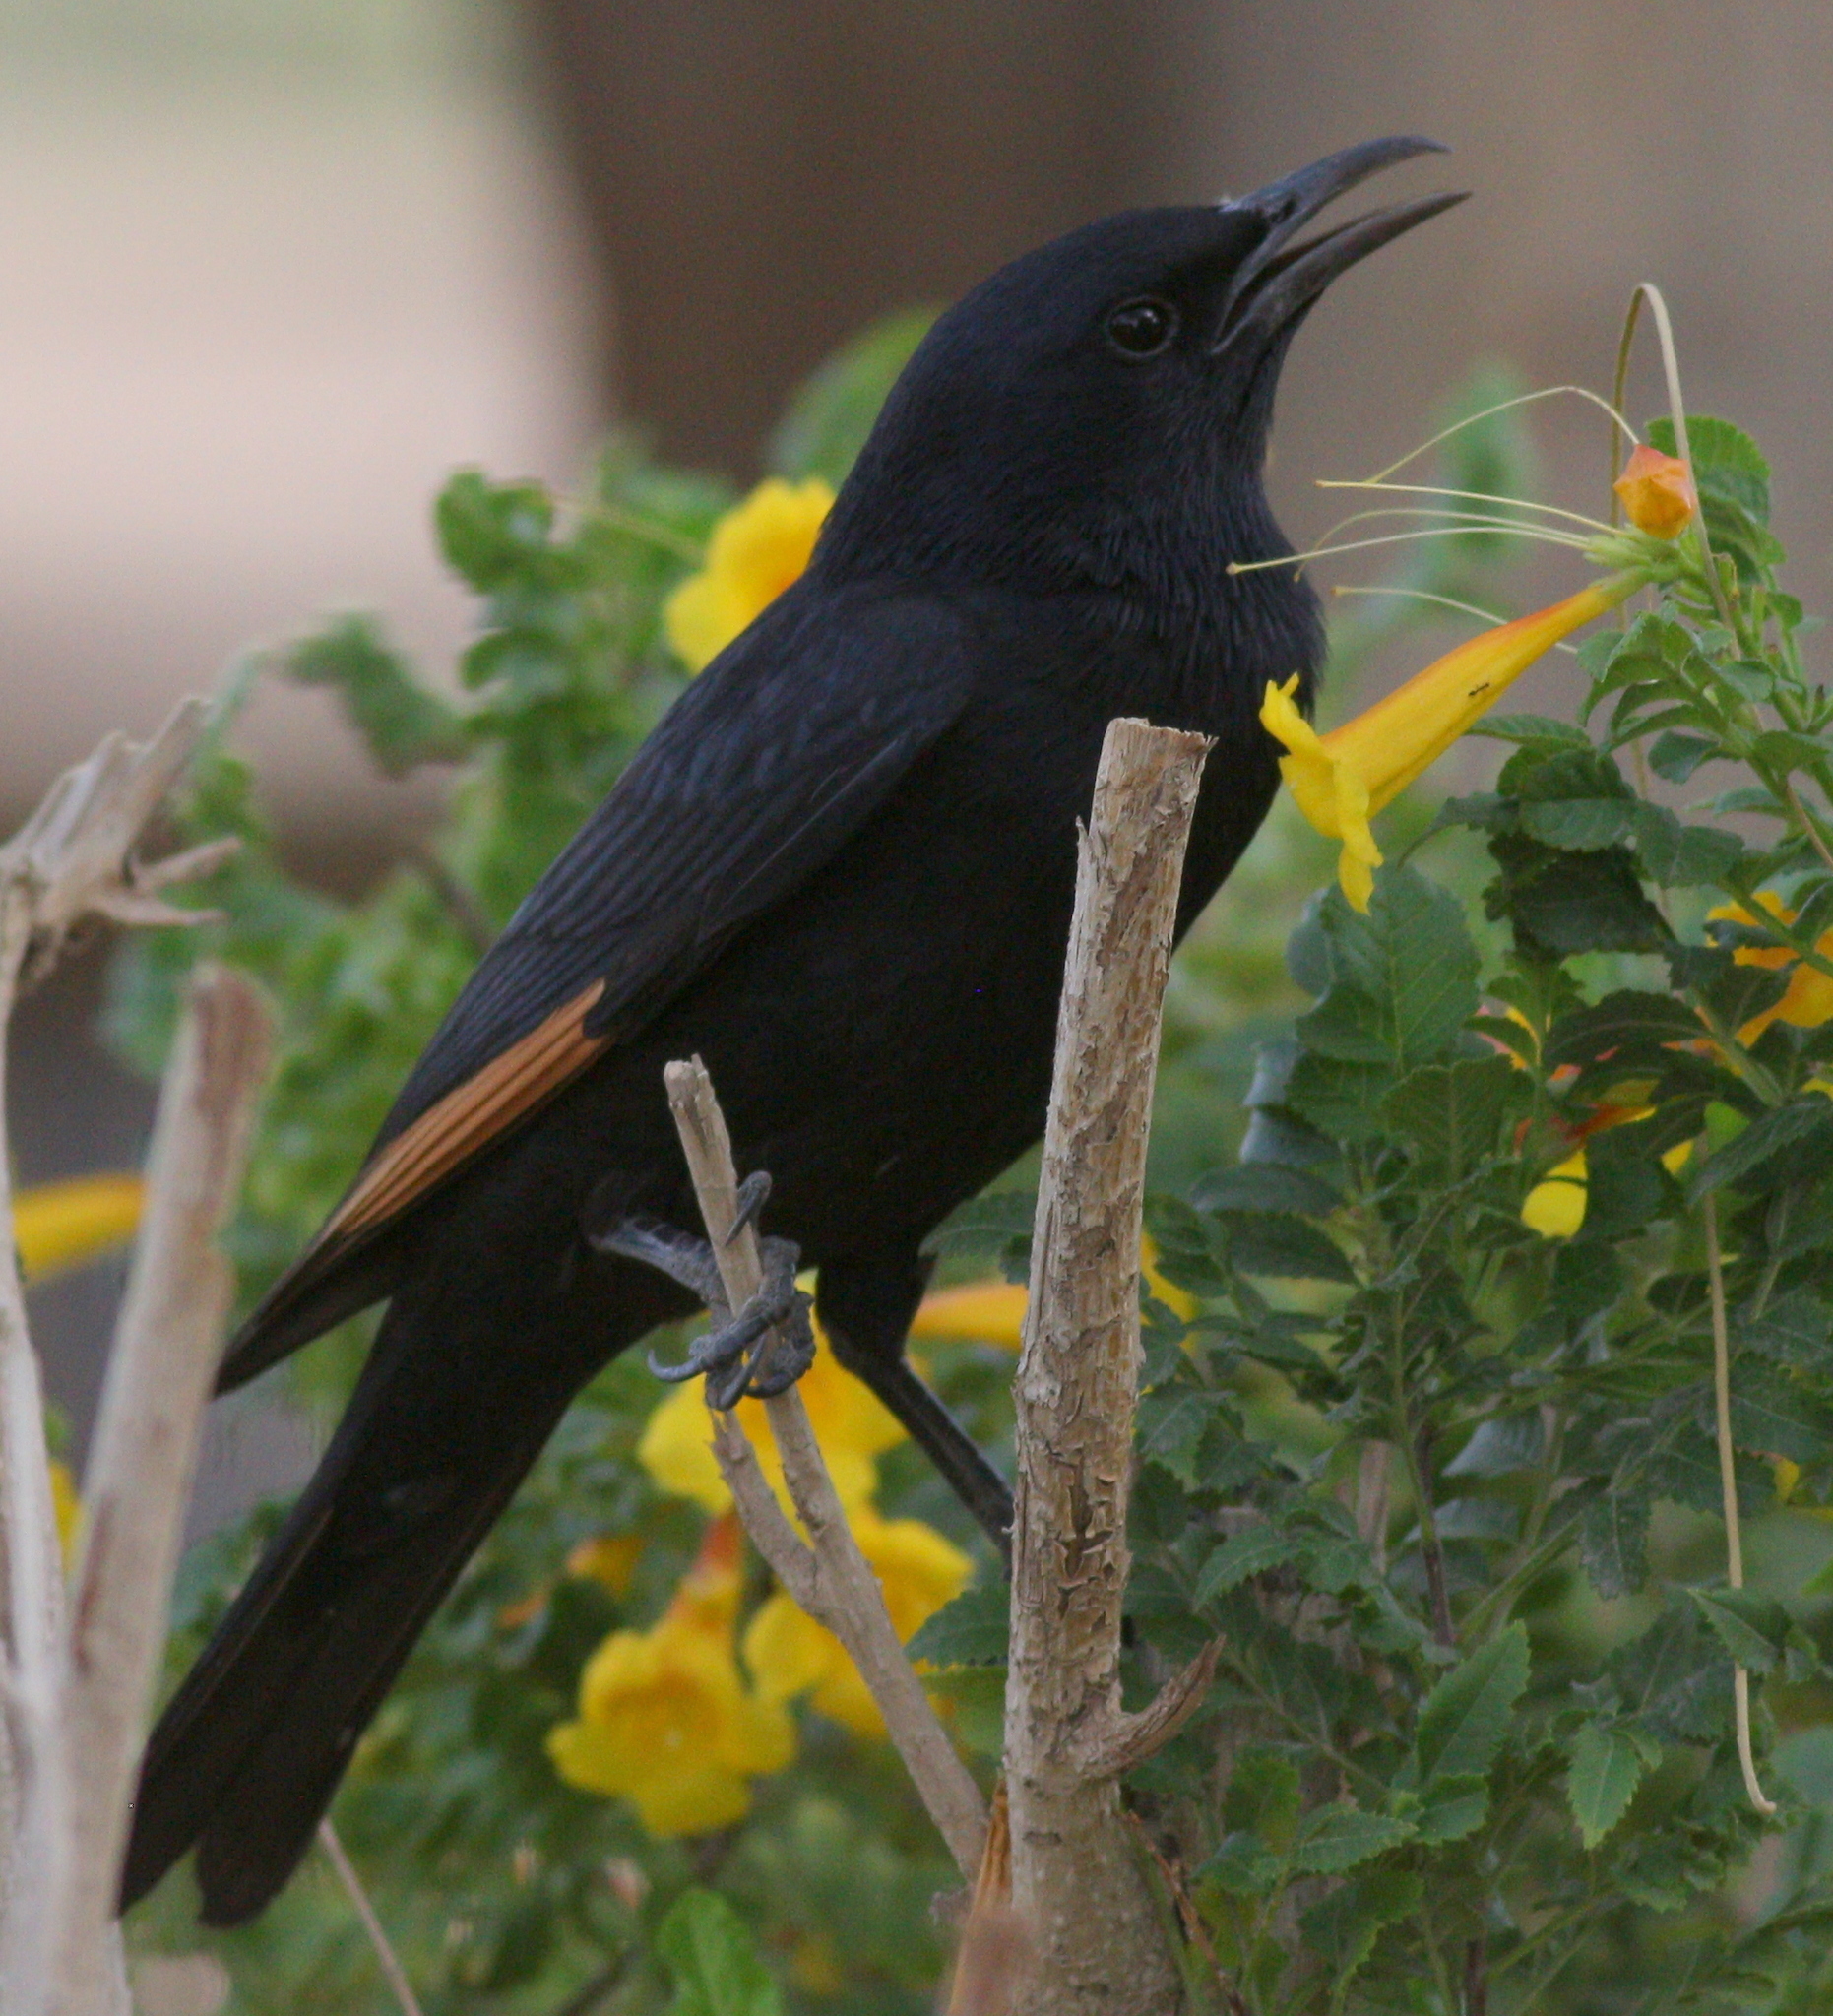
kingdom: Animalia
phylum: Chordata
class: Aves
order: Passeriformes
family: Sturnidae
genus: Onychognathus
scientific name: Onychognathus tristramii
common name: Tristram's starling
